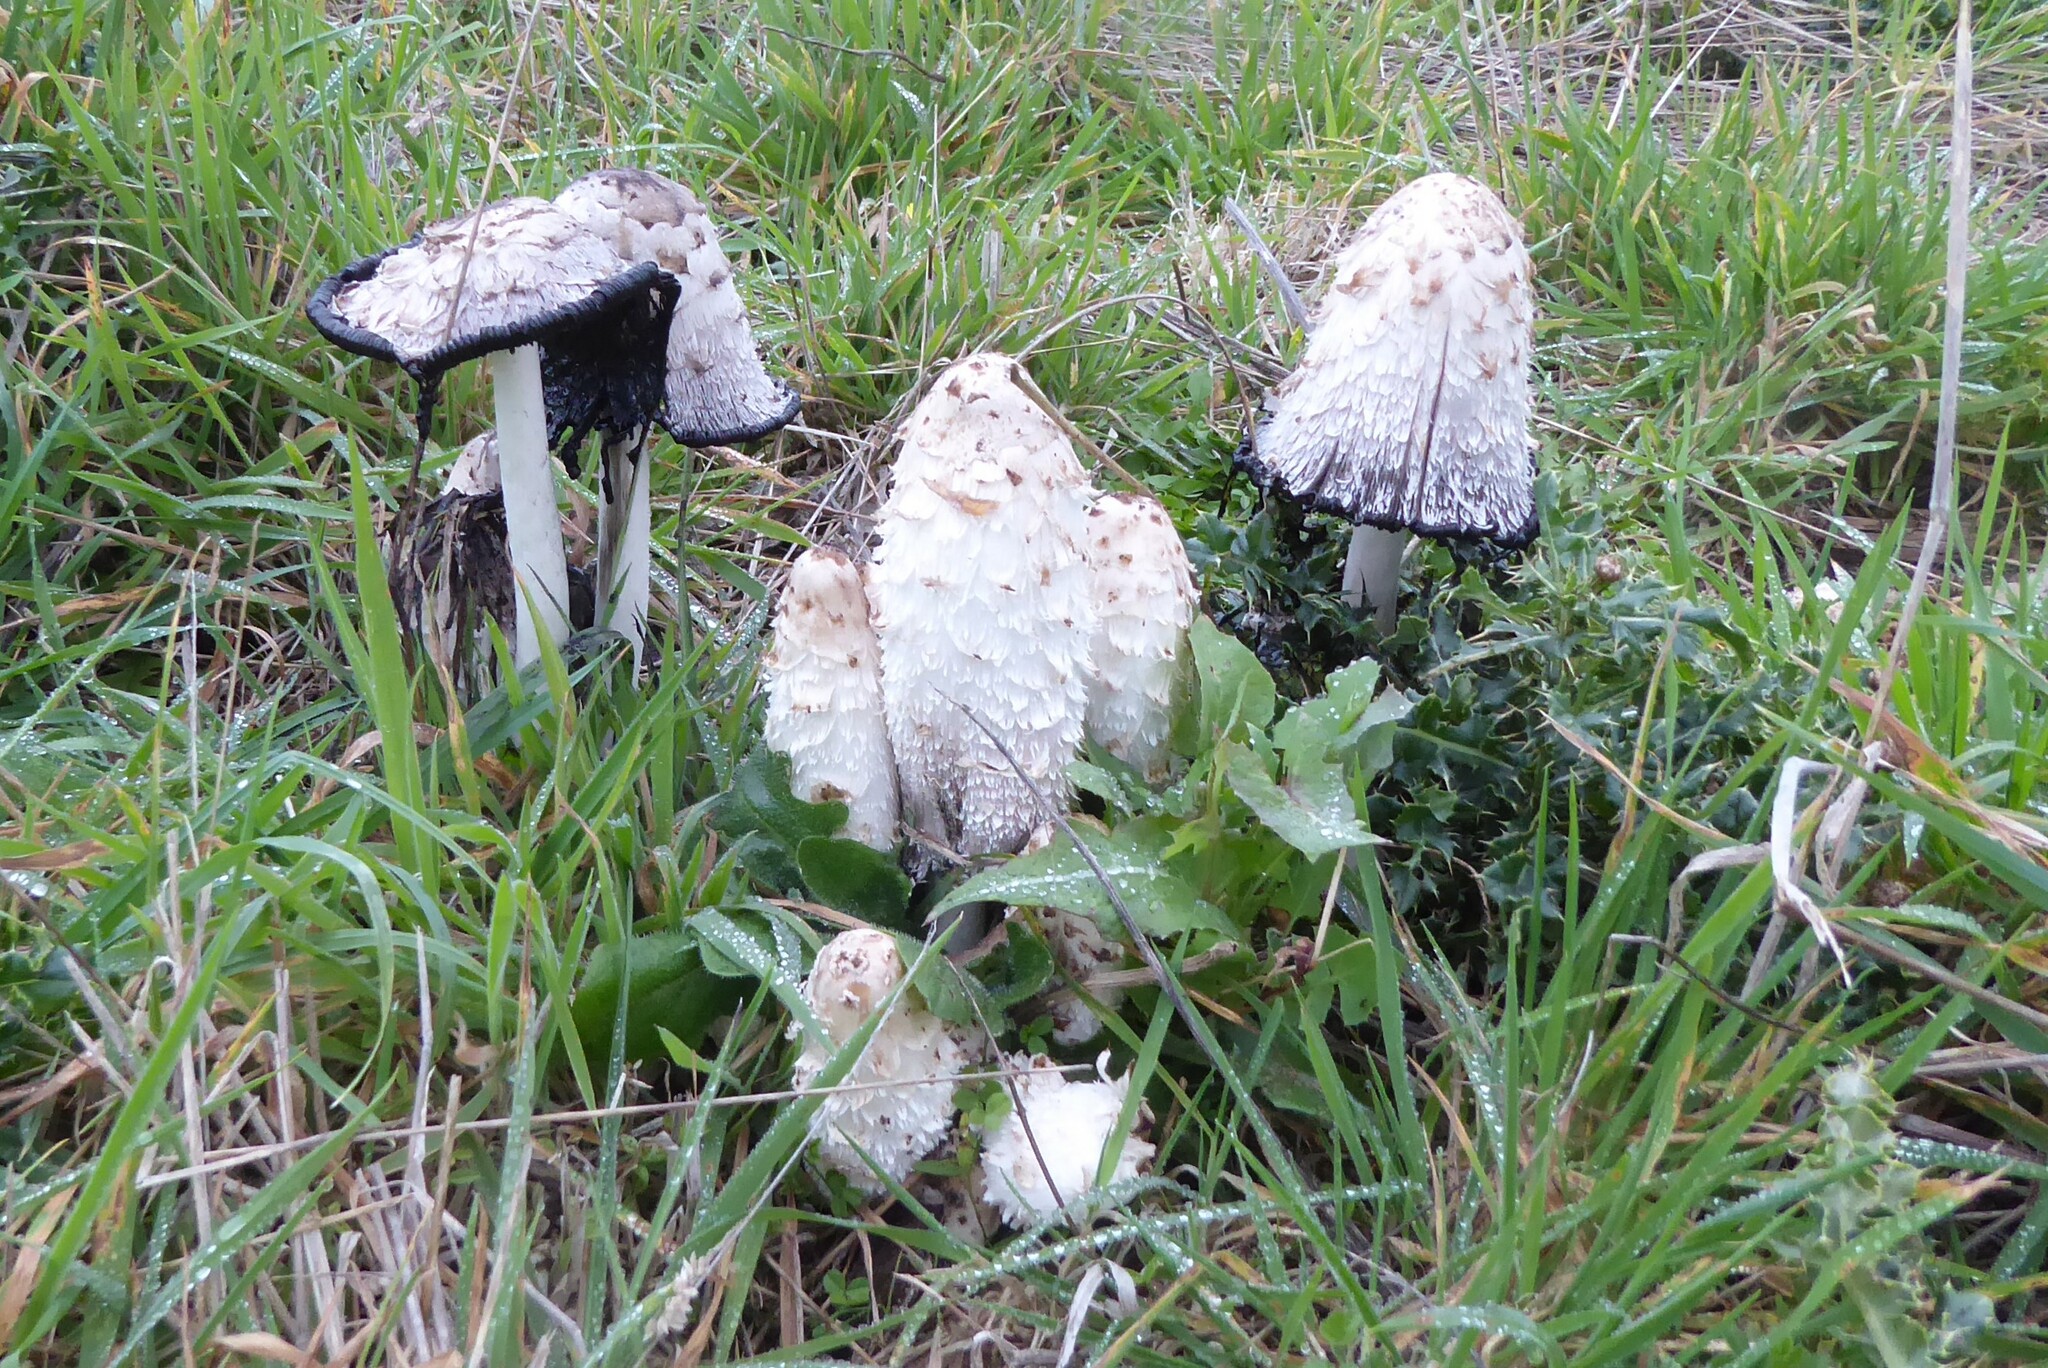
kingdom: Fungi
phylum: Basidiomycota
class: Agaricomycetes
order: Agaricales
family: Agaricaceae
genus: Coprinus
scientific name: Coprinus comatus
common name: Lawyer's wig
